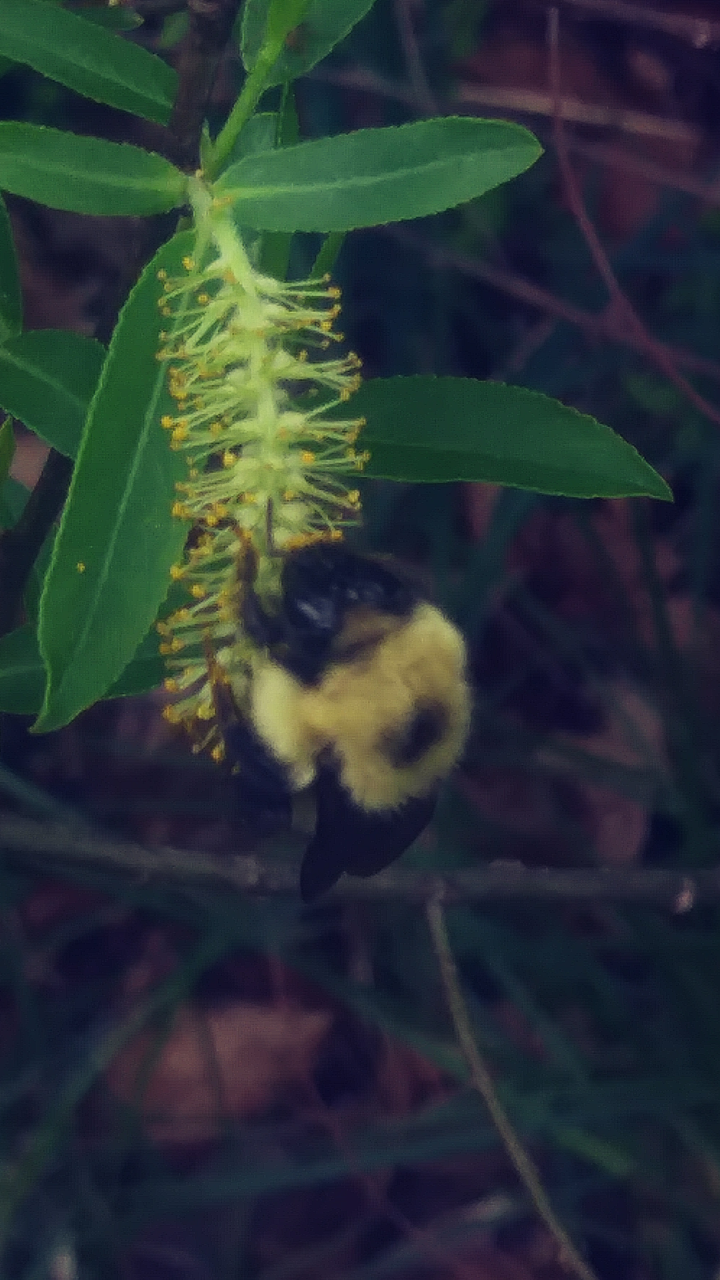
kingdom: Animalia
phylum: Arthropoda
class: Insecta
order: Hymenoptera
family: Apidae
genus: Bombus
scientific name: Bombus bimaculatus
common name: Two-spotted bumble bee
